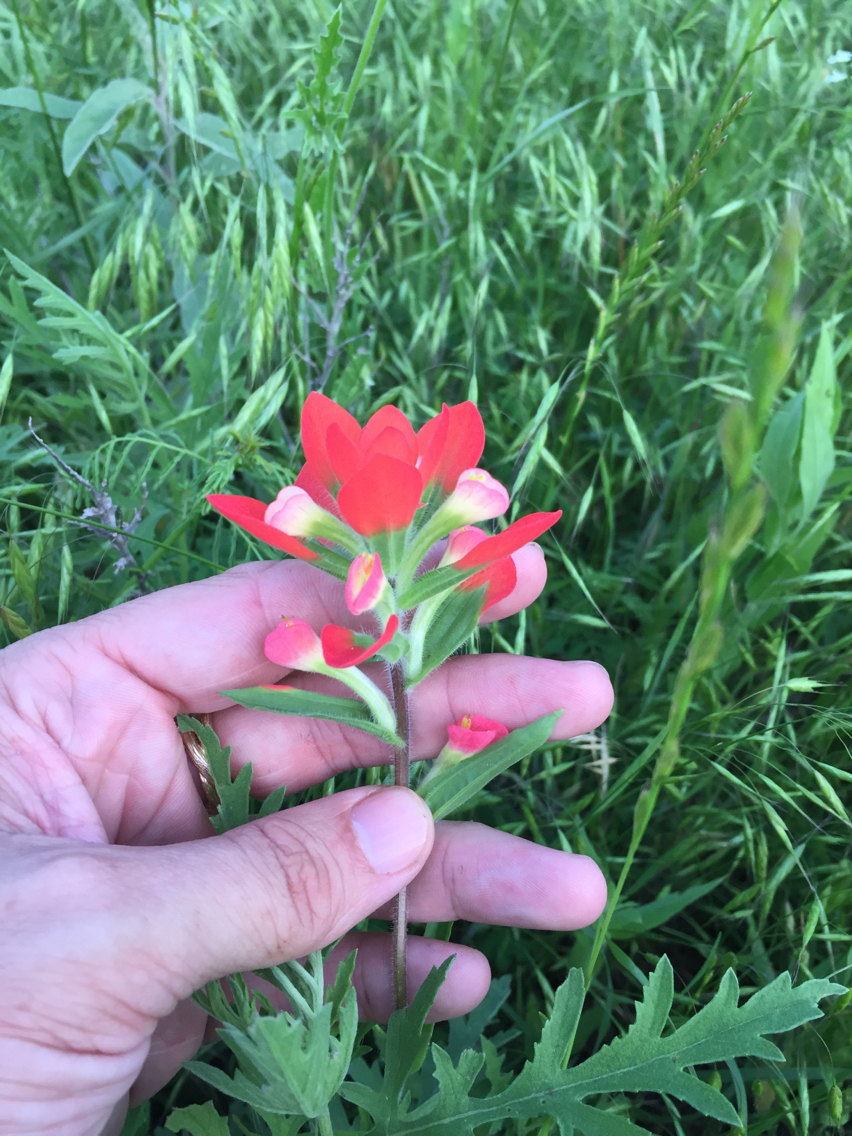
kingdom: Plantae
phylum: Tracheophyta
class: Magnoliopsida
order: Lamiales
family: Orobanchaceae
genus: Castilleja
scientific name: Castilleja indivisa
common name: Texas paintbrush
